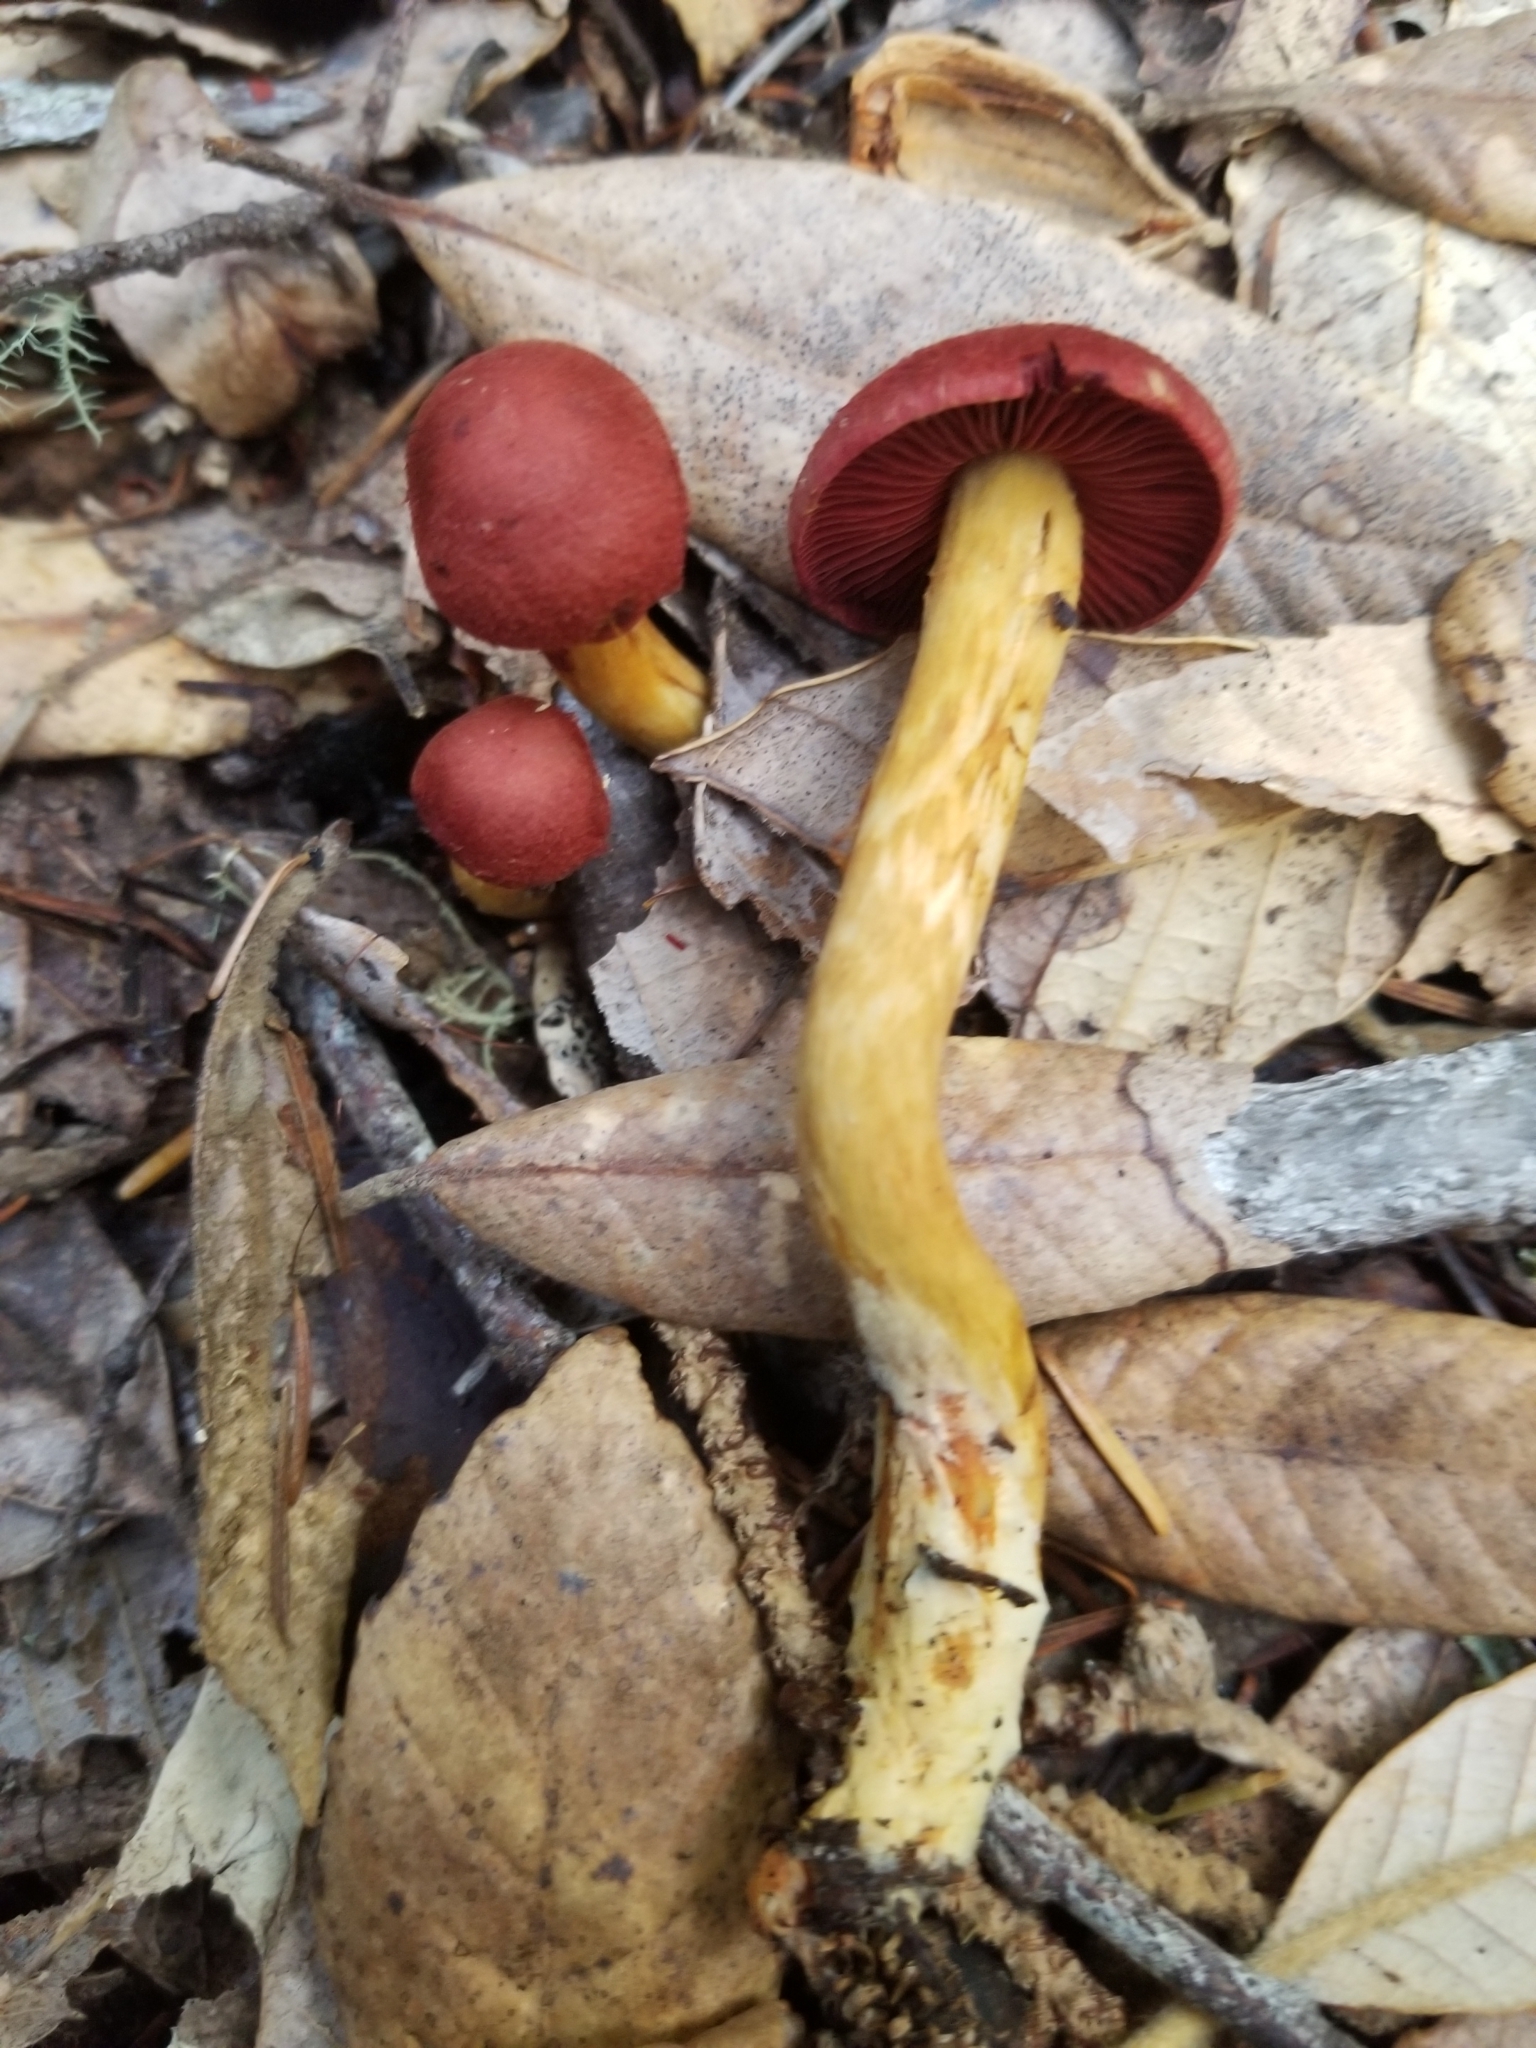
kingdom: Fungi
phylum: Basidiomycota
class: Agaricomycetes
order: Agaricales
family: Cortinariaceae
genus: Cortinarius
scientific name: Cortinarius smithii
